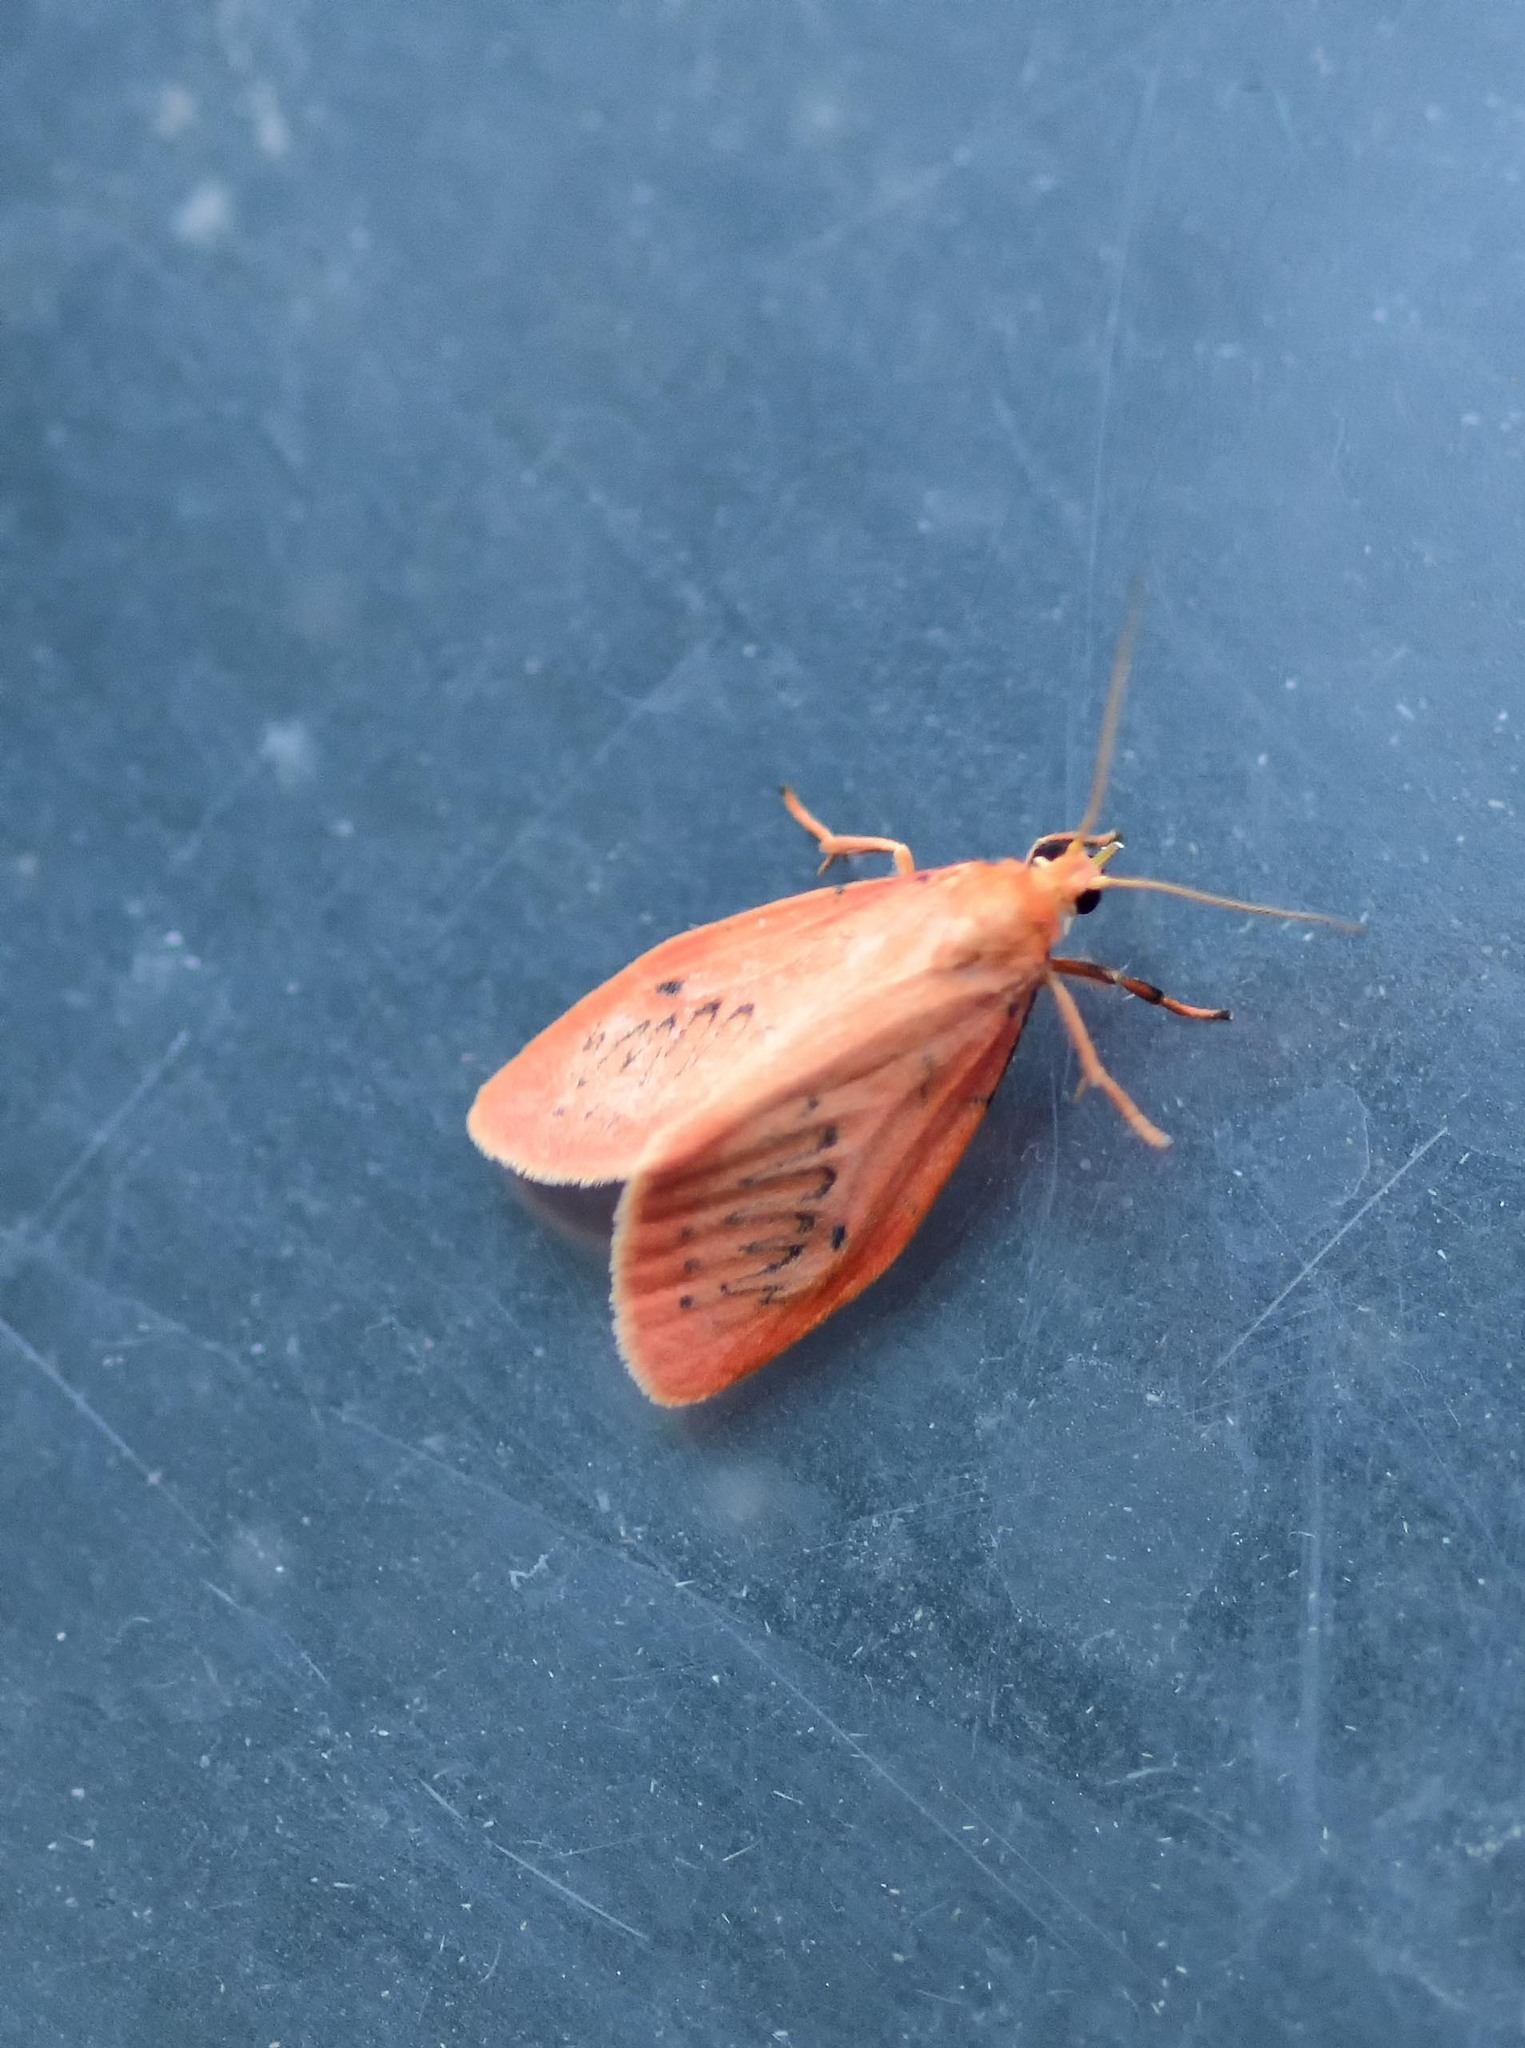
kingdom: Animalia
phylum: Arthropoda
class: Insecta
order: Lepidoptera
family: Erebidae
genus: Miltochrista
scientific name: Miltochrista miniata
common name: Rosy footman
